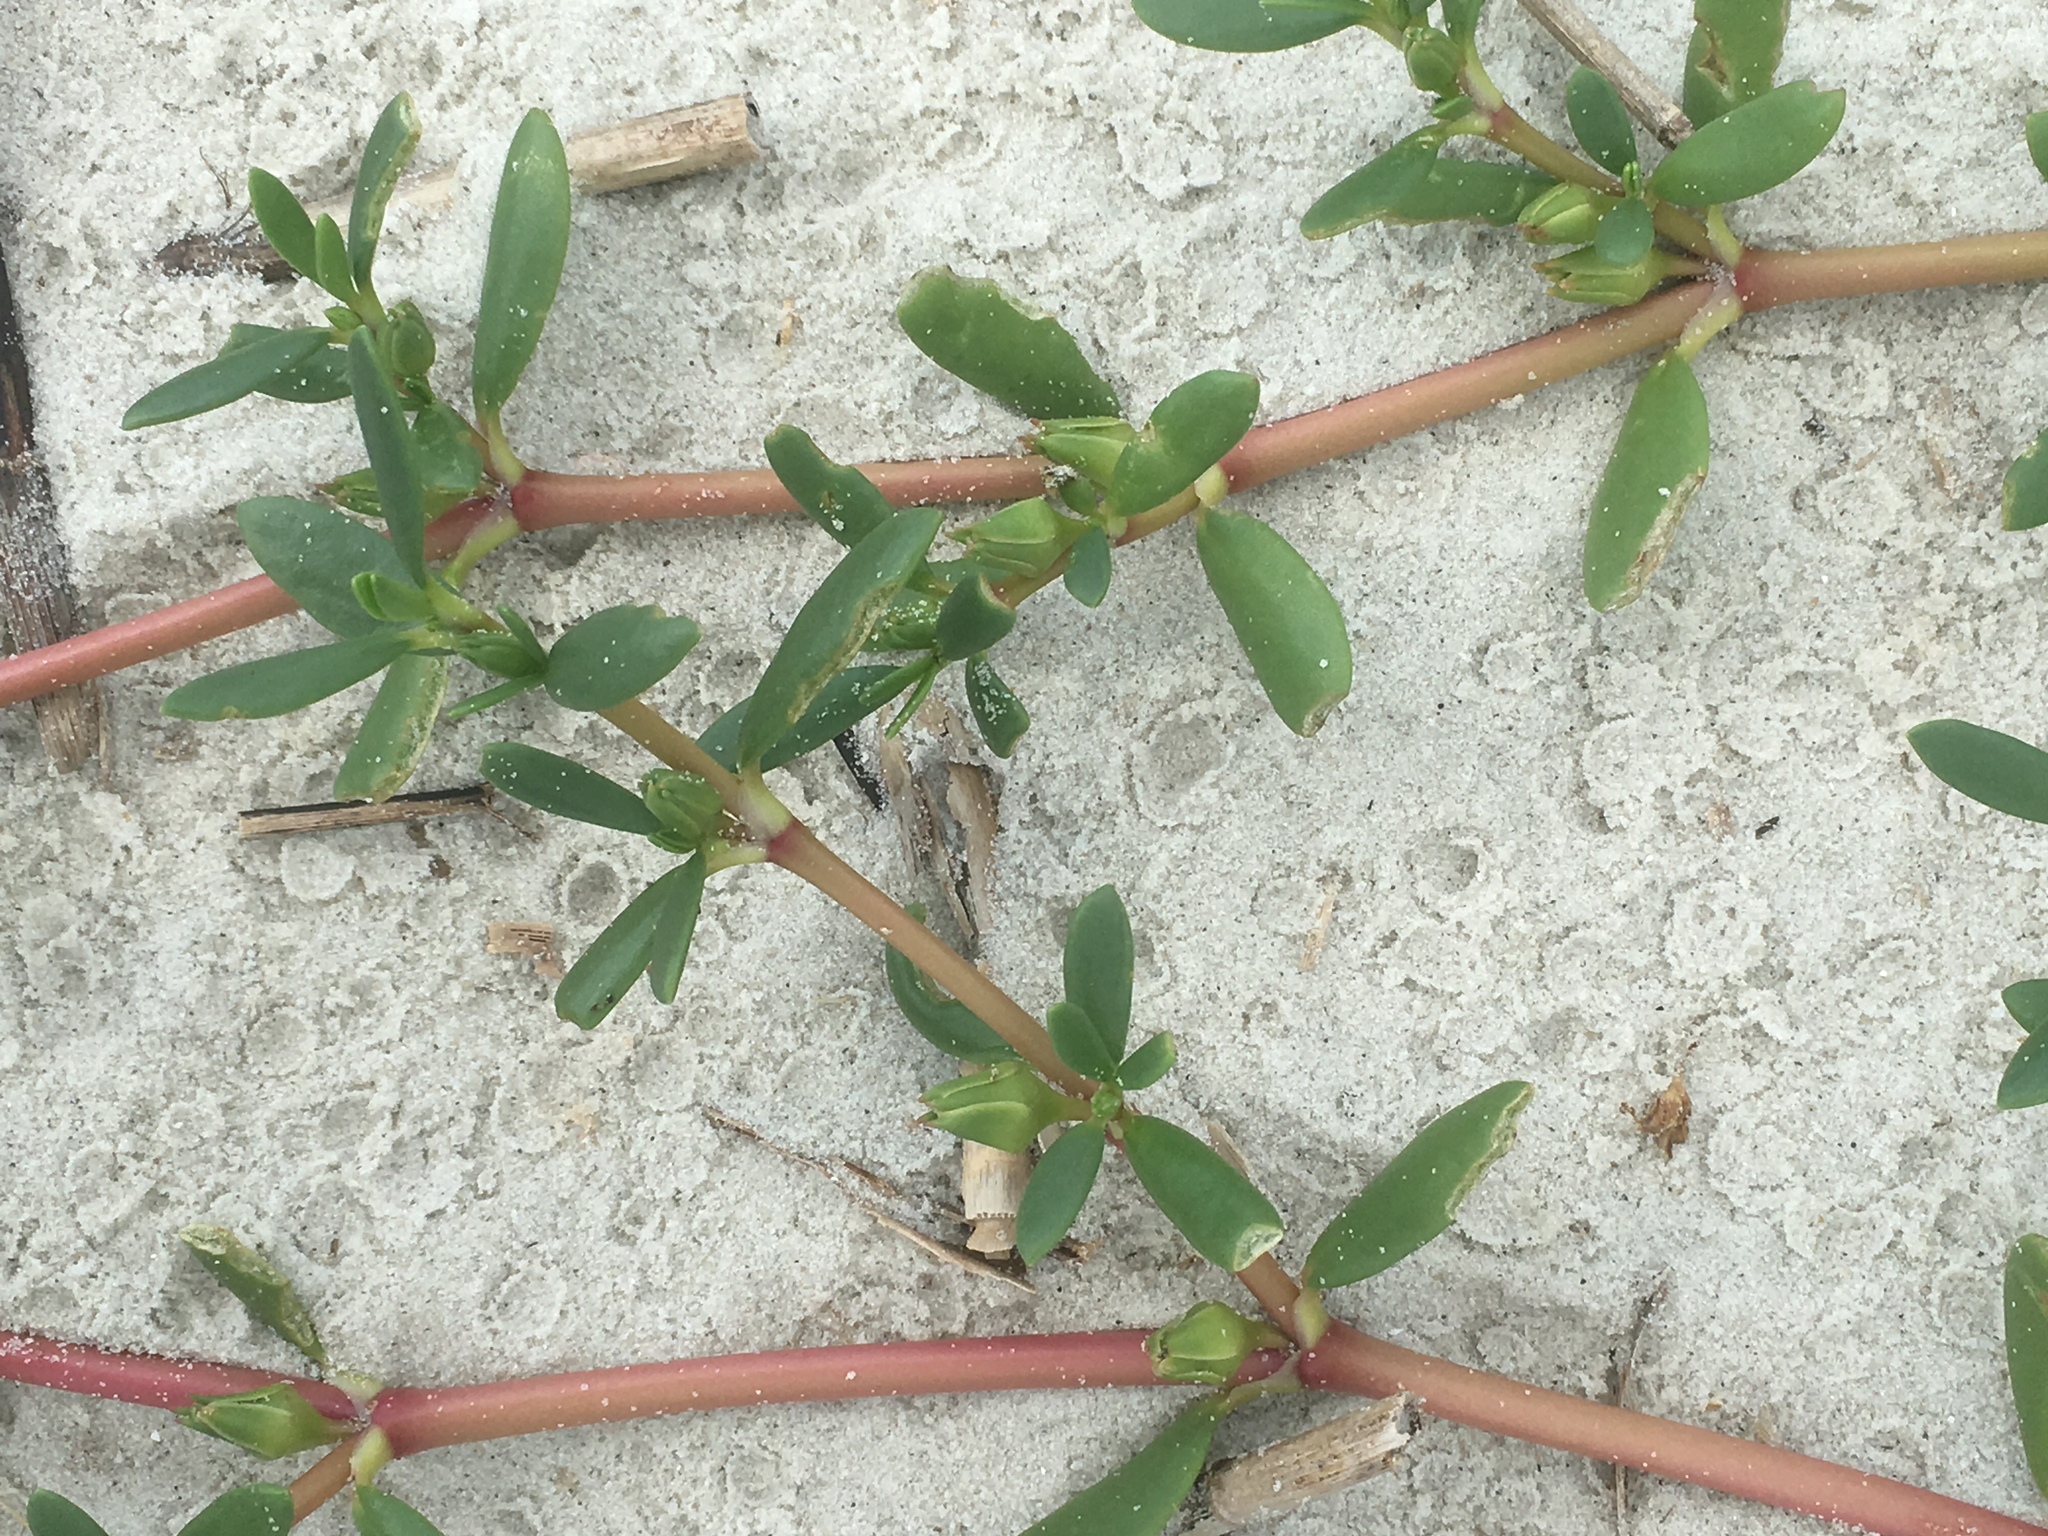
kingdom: Plantae
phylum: Tracheophyta
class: Magnoliopsida
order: Caryophyllales
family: Aizoaceae
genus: Sesuvium
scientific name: Sesuvium portulacastrum
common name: Sea-purslane
